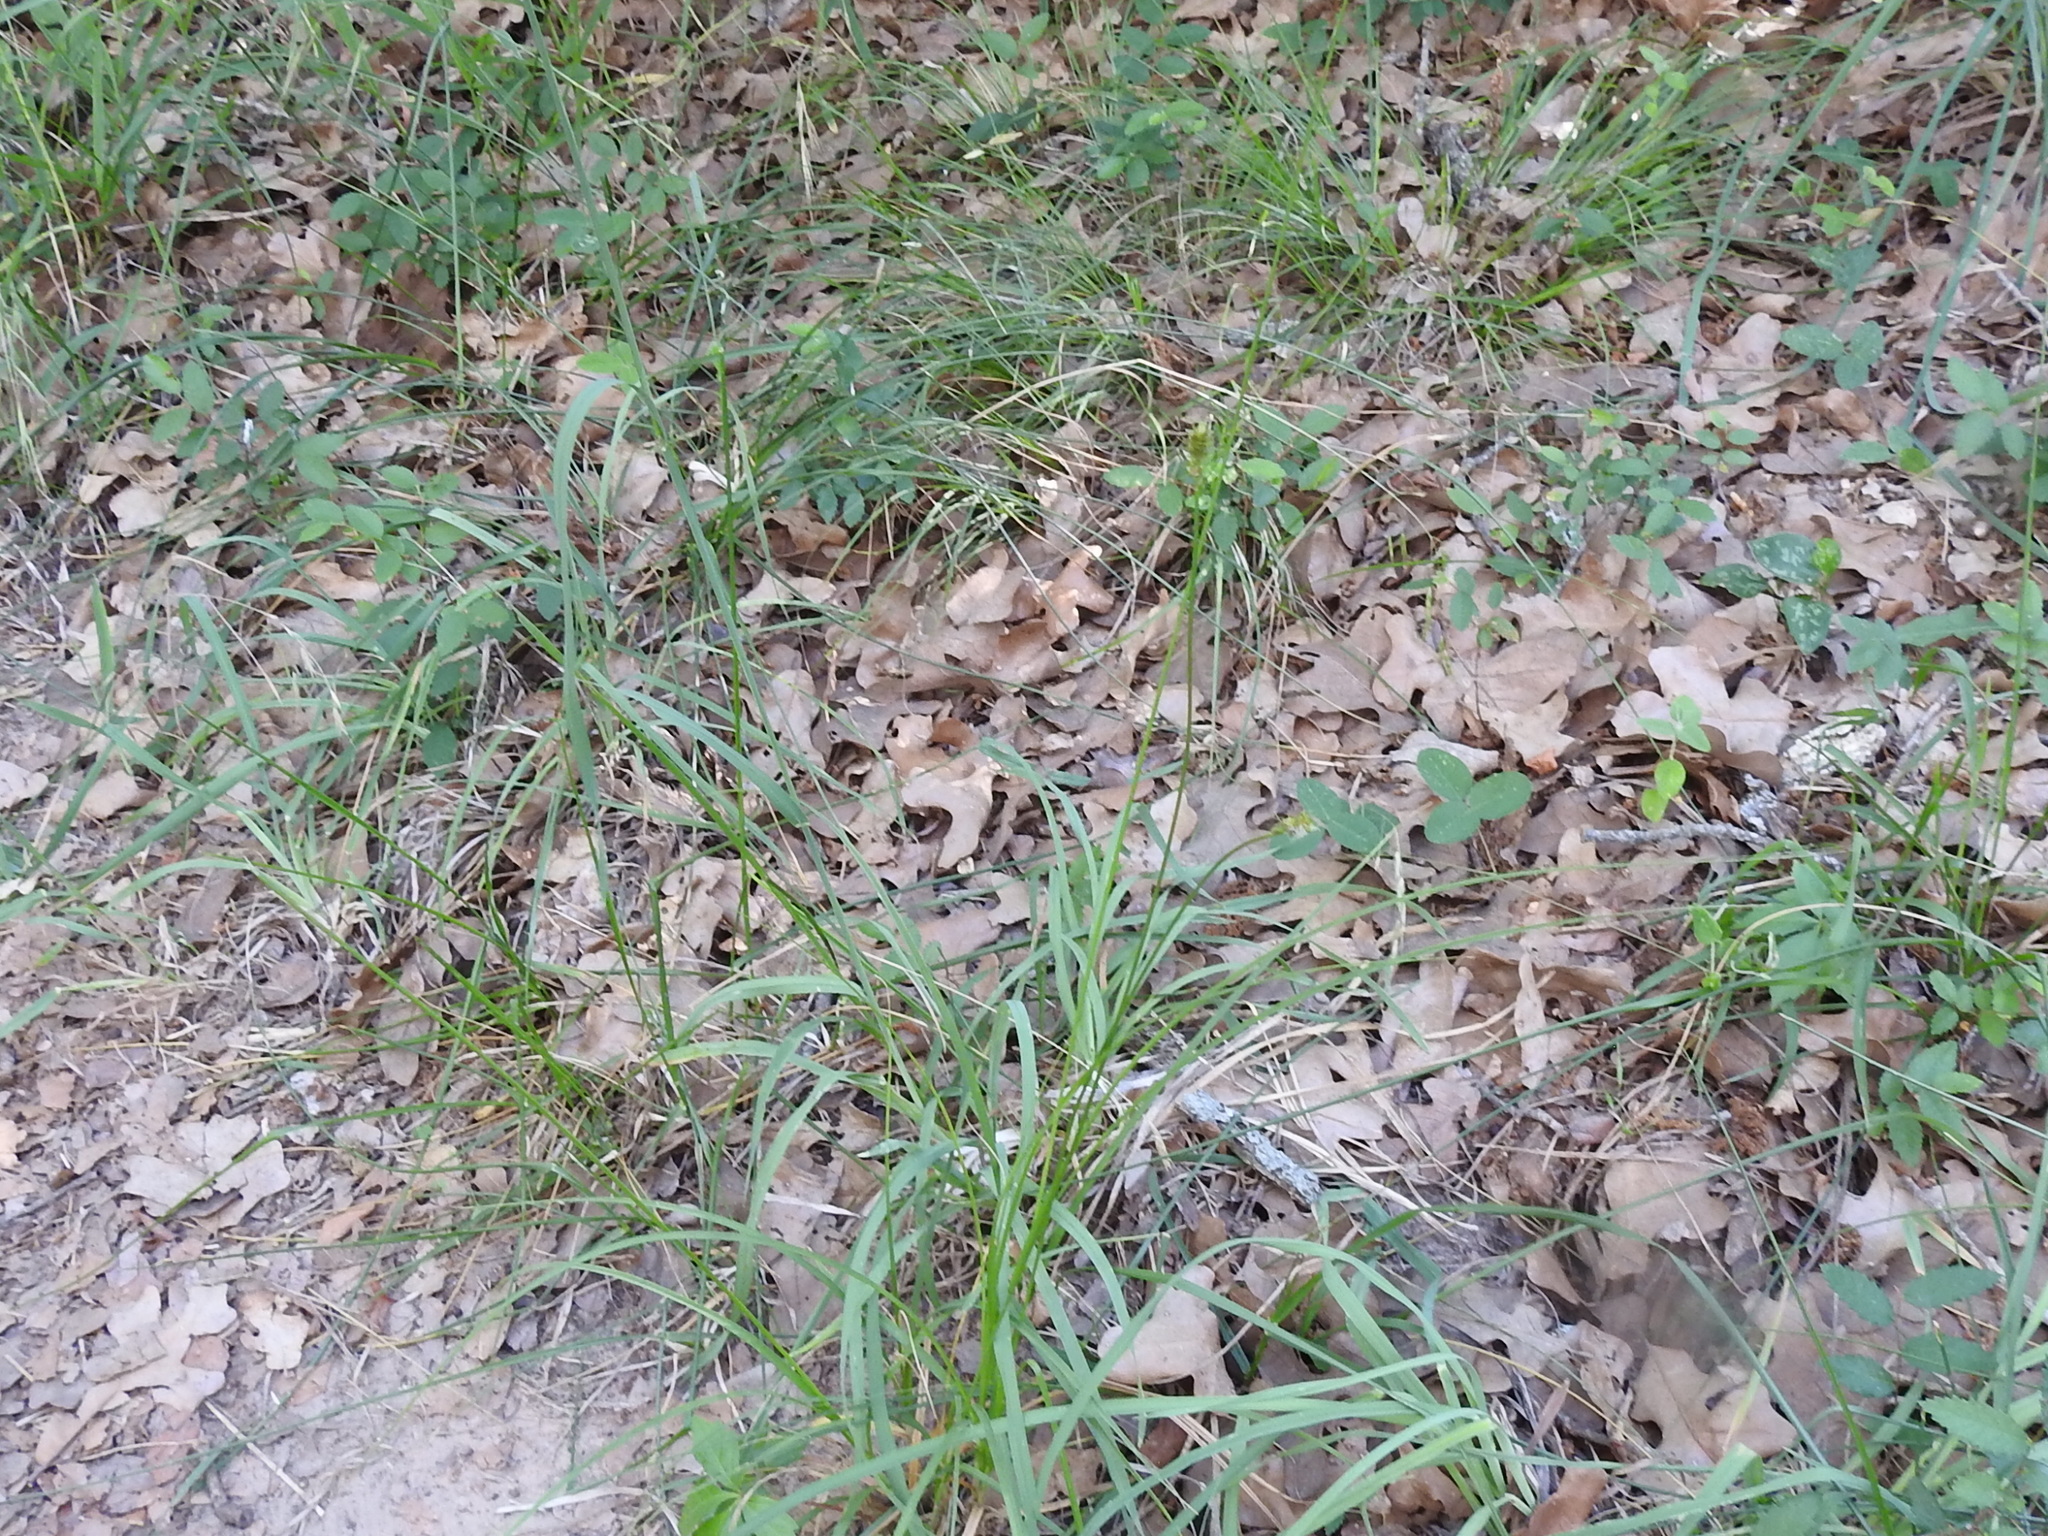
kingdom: Plantae
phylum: Tracheophyta
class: Liliopsida
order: Poales
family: Cyperaceae
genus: Carex
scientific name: Carex muehlenbergii
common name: Muhlenberg's bracted sedge
